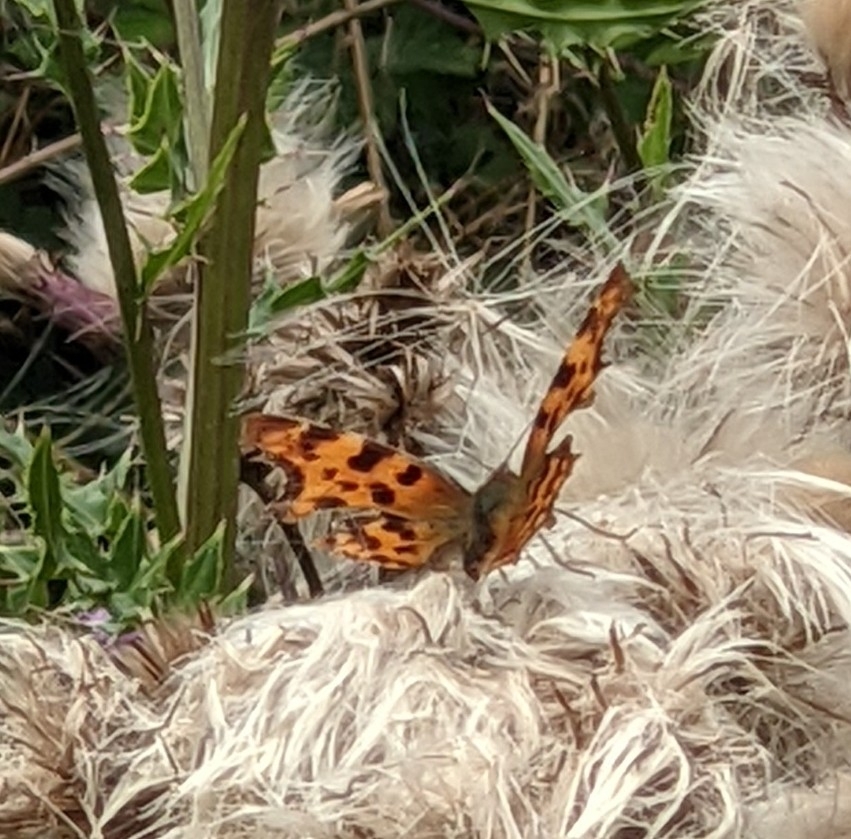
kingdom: Animalia
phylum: Arthropoda
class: Insecta
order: Lepidoptera
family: Nymphalidae
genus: Polygonia
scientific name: Polygonia c-album
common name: Comma
